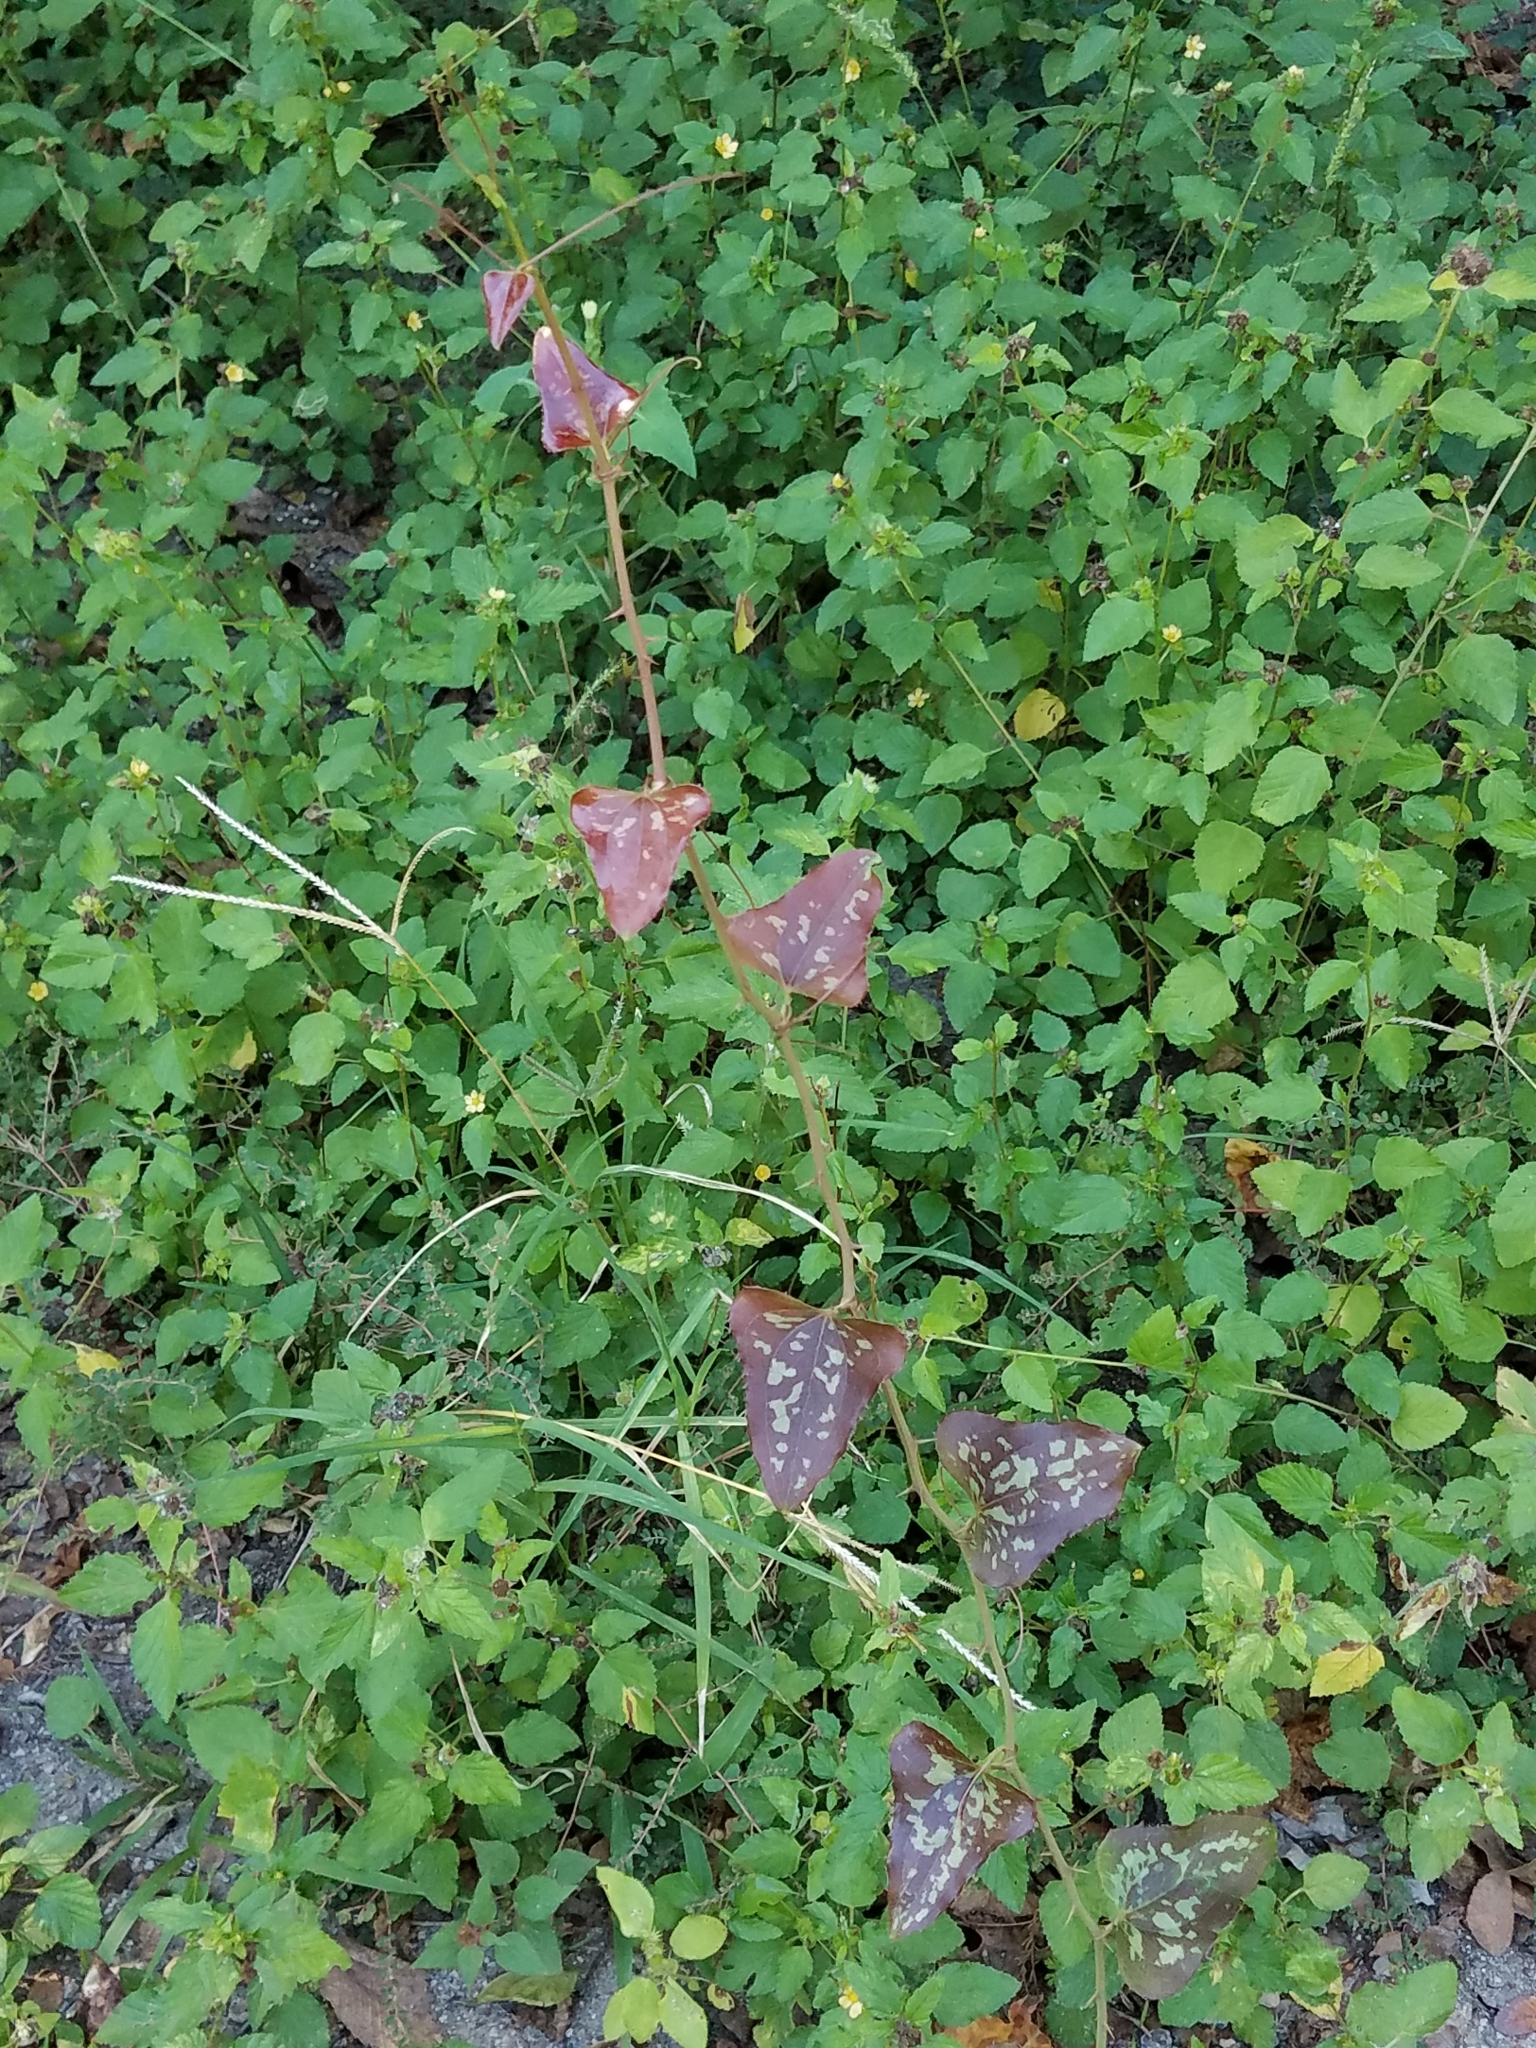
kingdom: Plantae
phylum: Tracheophyta
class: Liliopsida
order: Liliales
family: Smilacaceae
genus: Smilax
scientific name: Smilax bona-nox
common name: Catbrier
